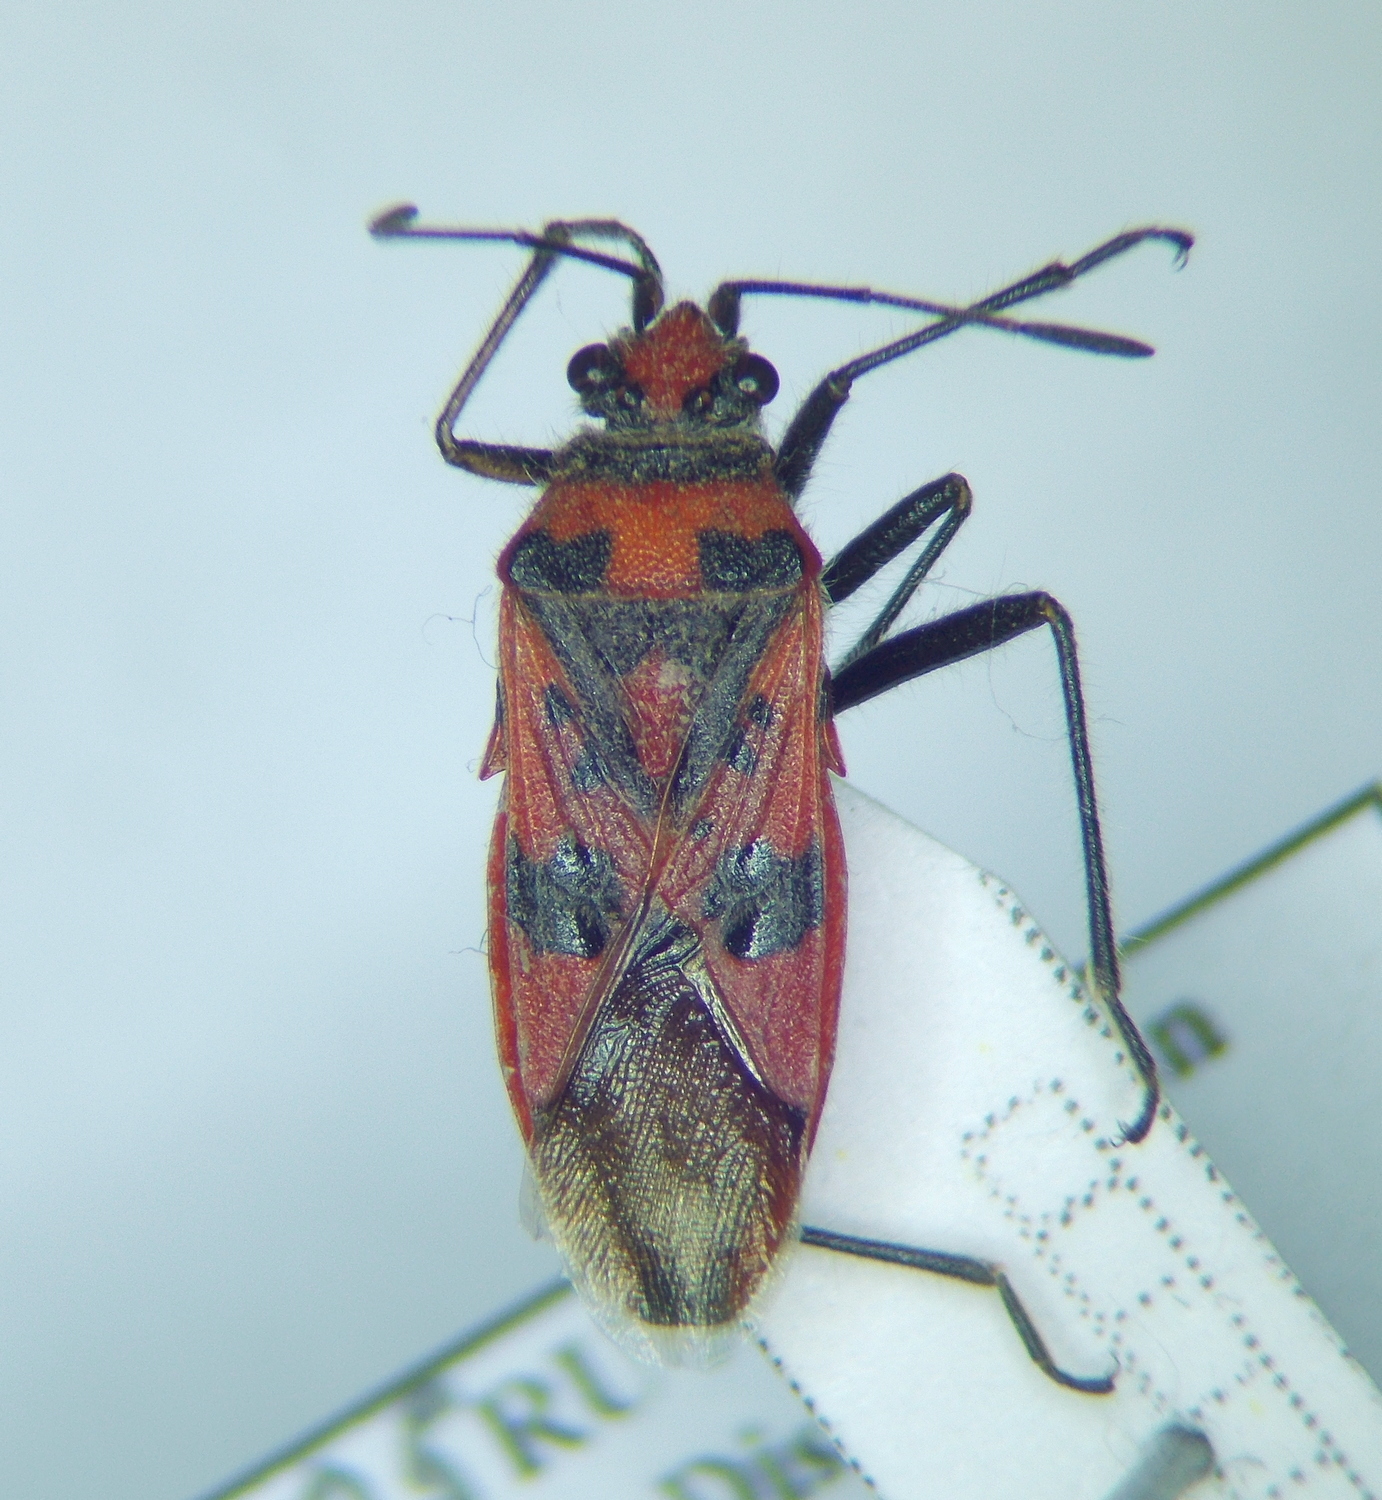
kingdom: Animalia
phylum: Arthropoda
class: Insecta
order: Hemiptera
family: Rhopalidae
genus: Corizus
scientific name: Corizus hyoscyami
